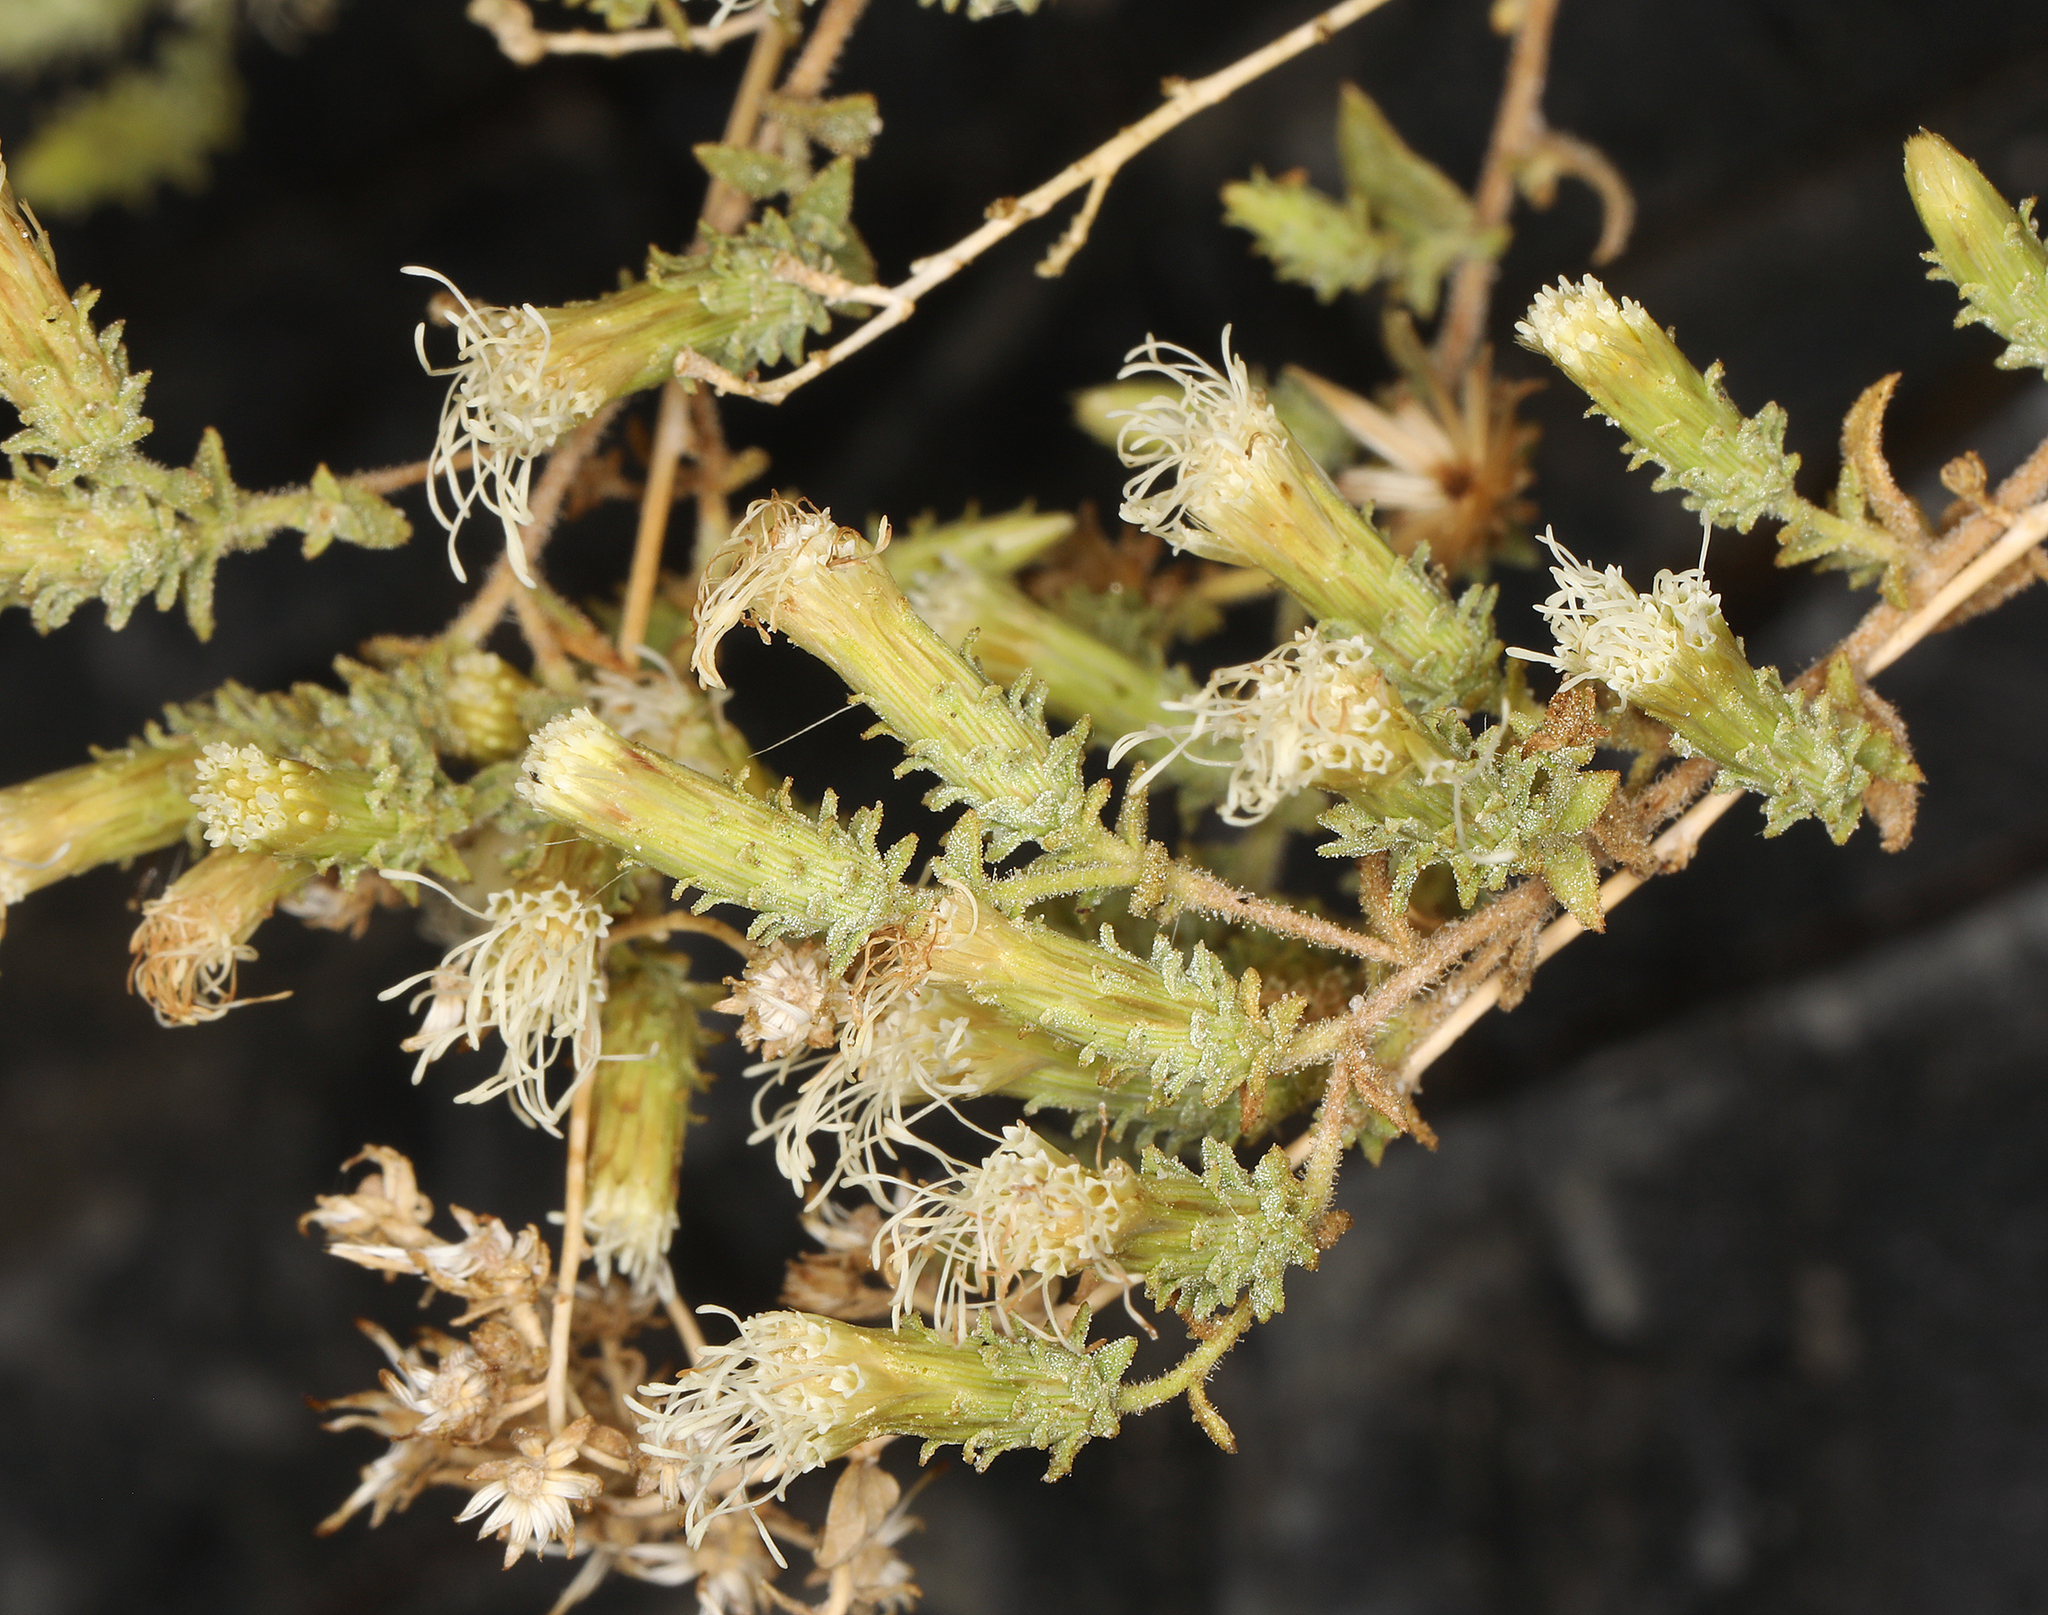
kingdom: Plantae
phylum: Tracheophyta
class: Magnoliopsida
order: Asterales
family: Asteraceae
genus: Brickellia
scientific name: Brickellia microphylla
